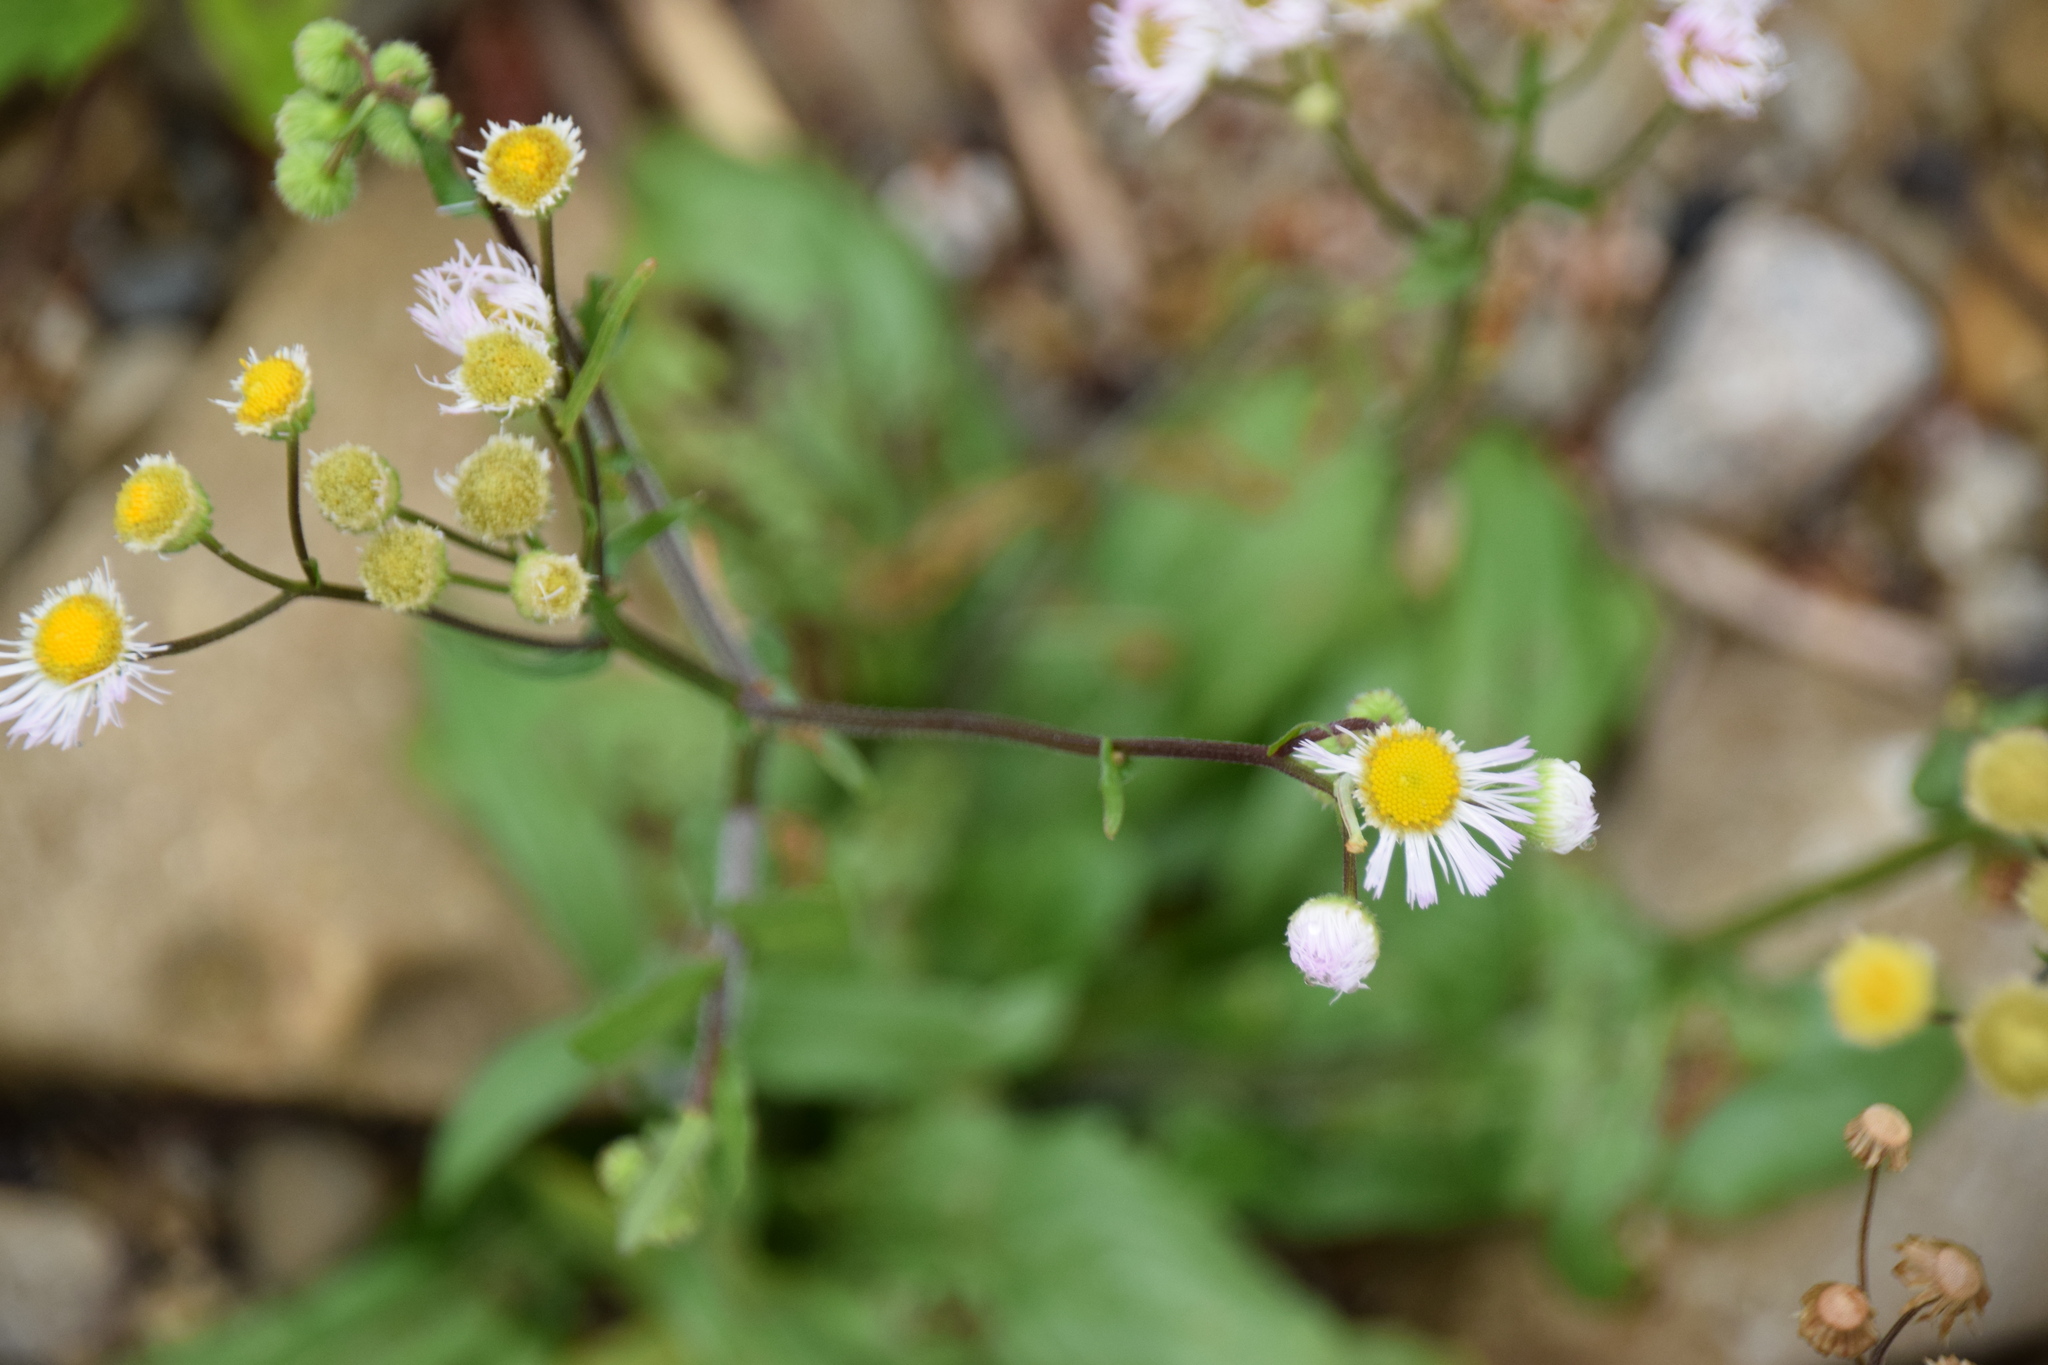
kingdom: Plantae
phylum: Tracheophyta
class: Magnoliopsida
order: Asterales
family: Asteraceae
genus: Erigeron
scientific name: Erigeron philadelphicus
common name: Robin's-plantain
